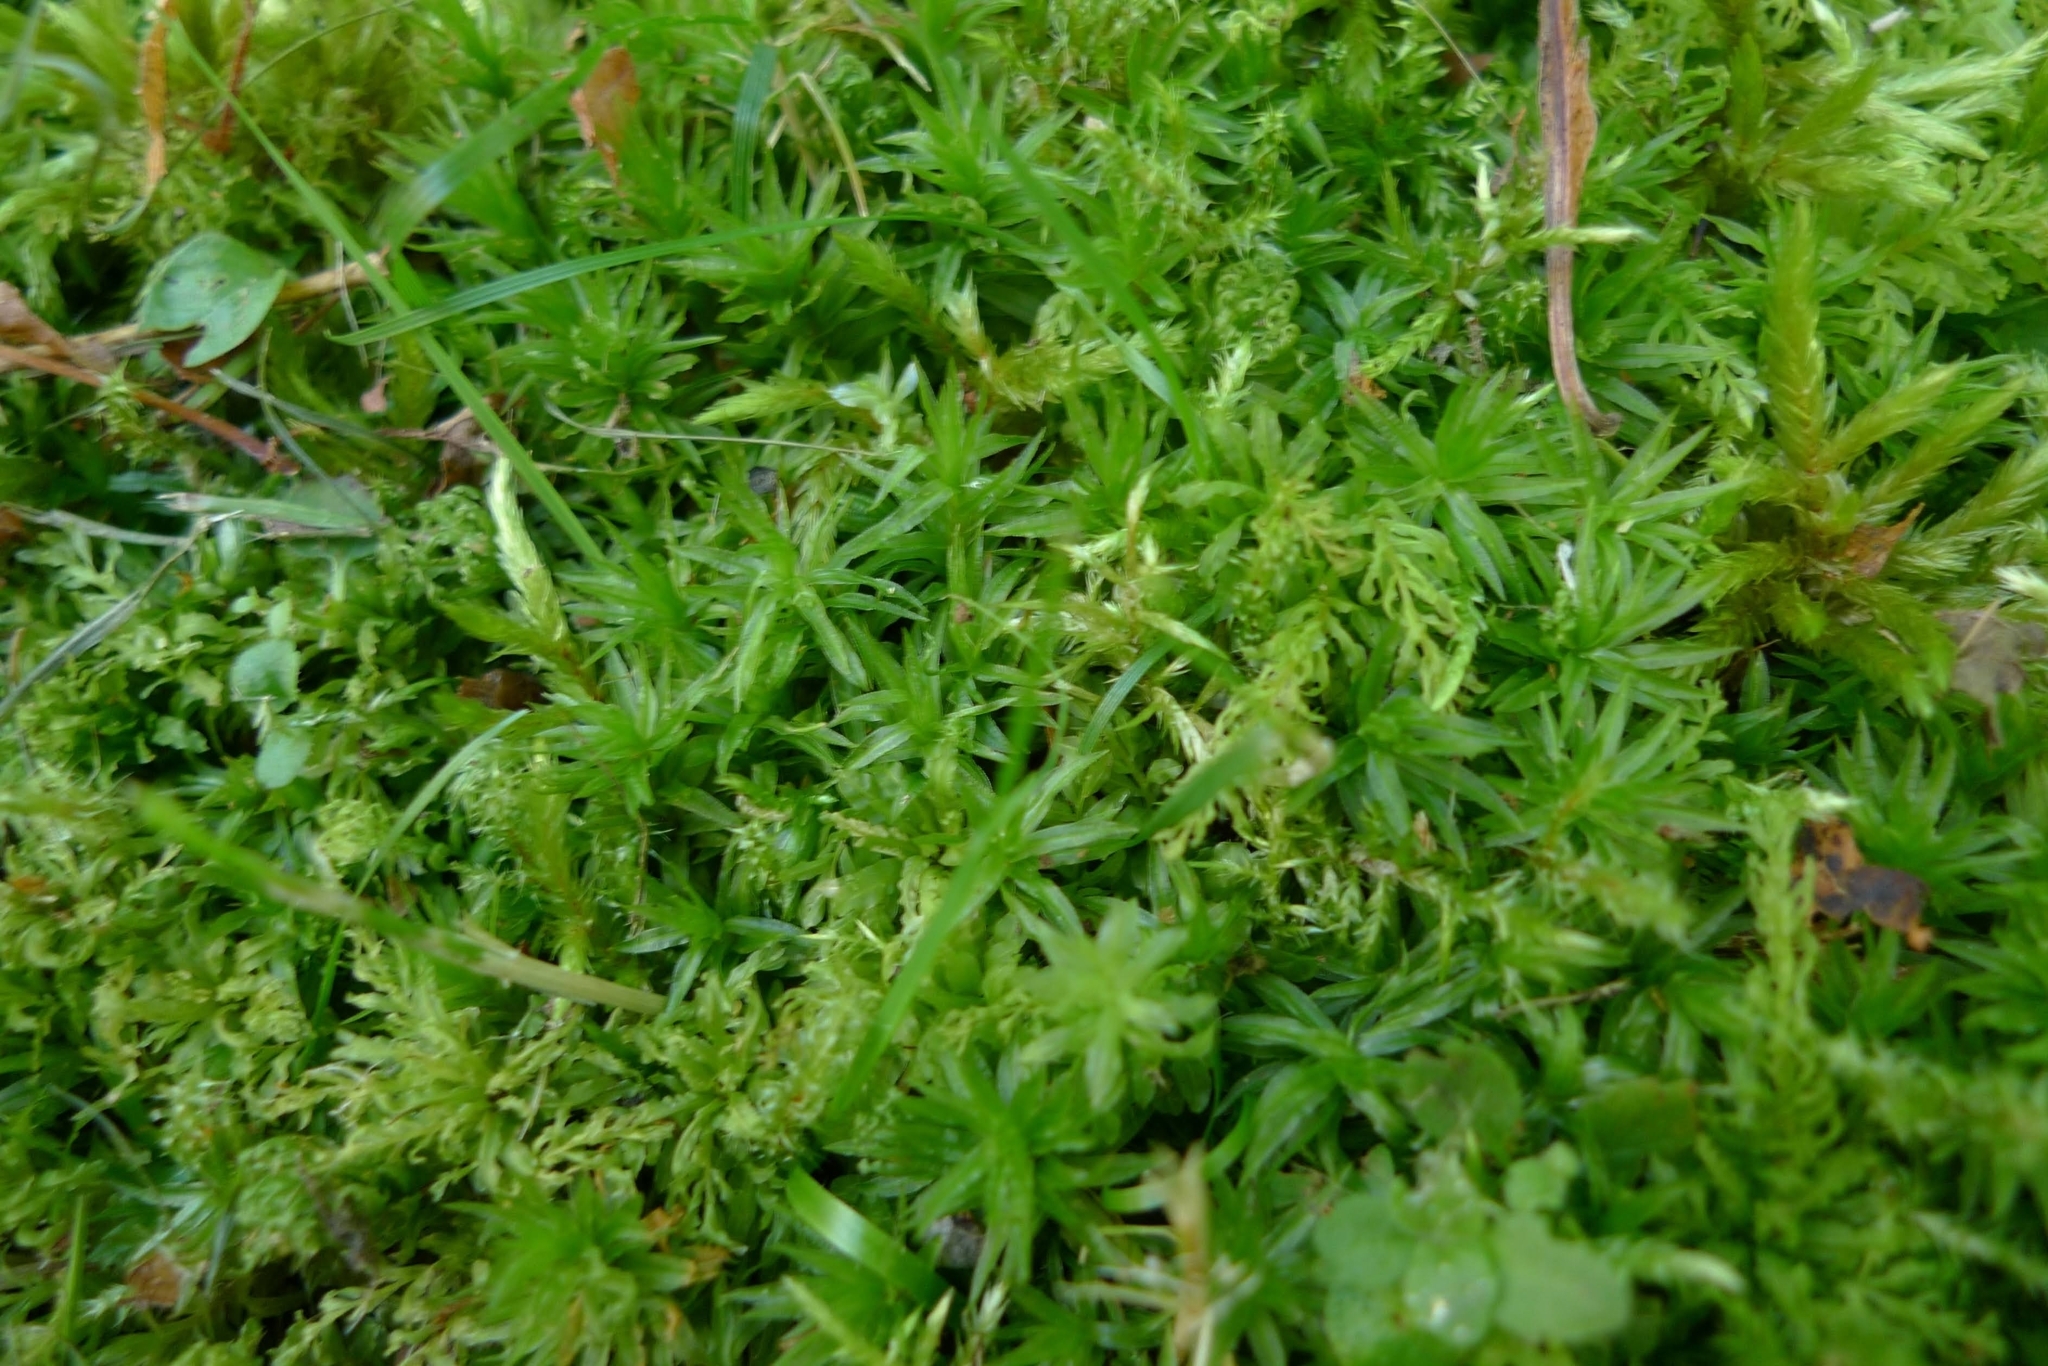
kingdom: Plantae
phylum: Bryophyta
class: Polytrichopsida
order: Polytrichales
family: Polytrichaceae
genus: Atrichum
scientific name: Atrichum undulatum
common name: Common smoothcap
